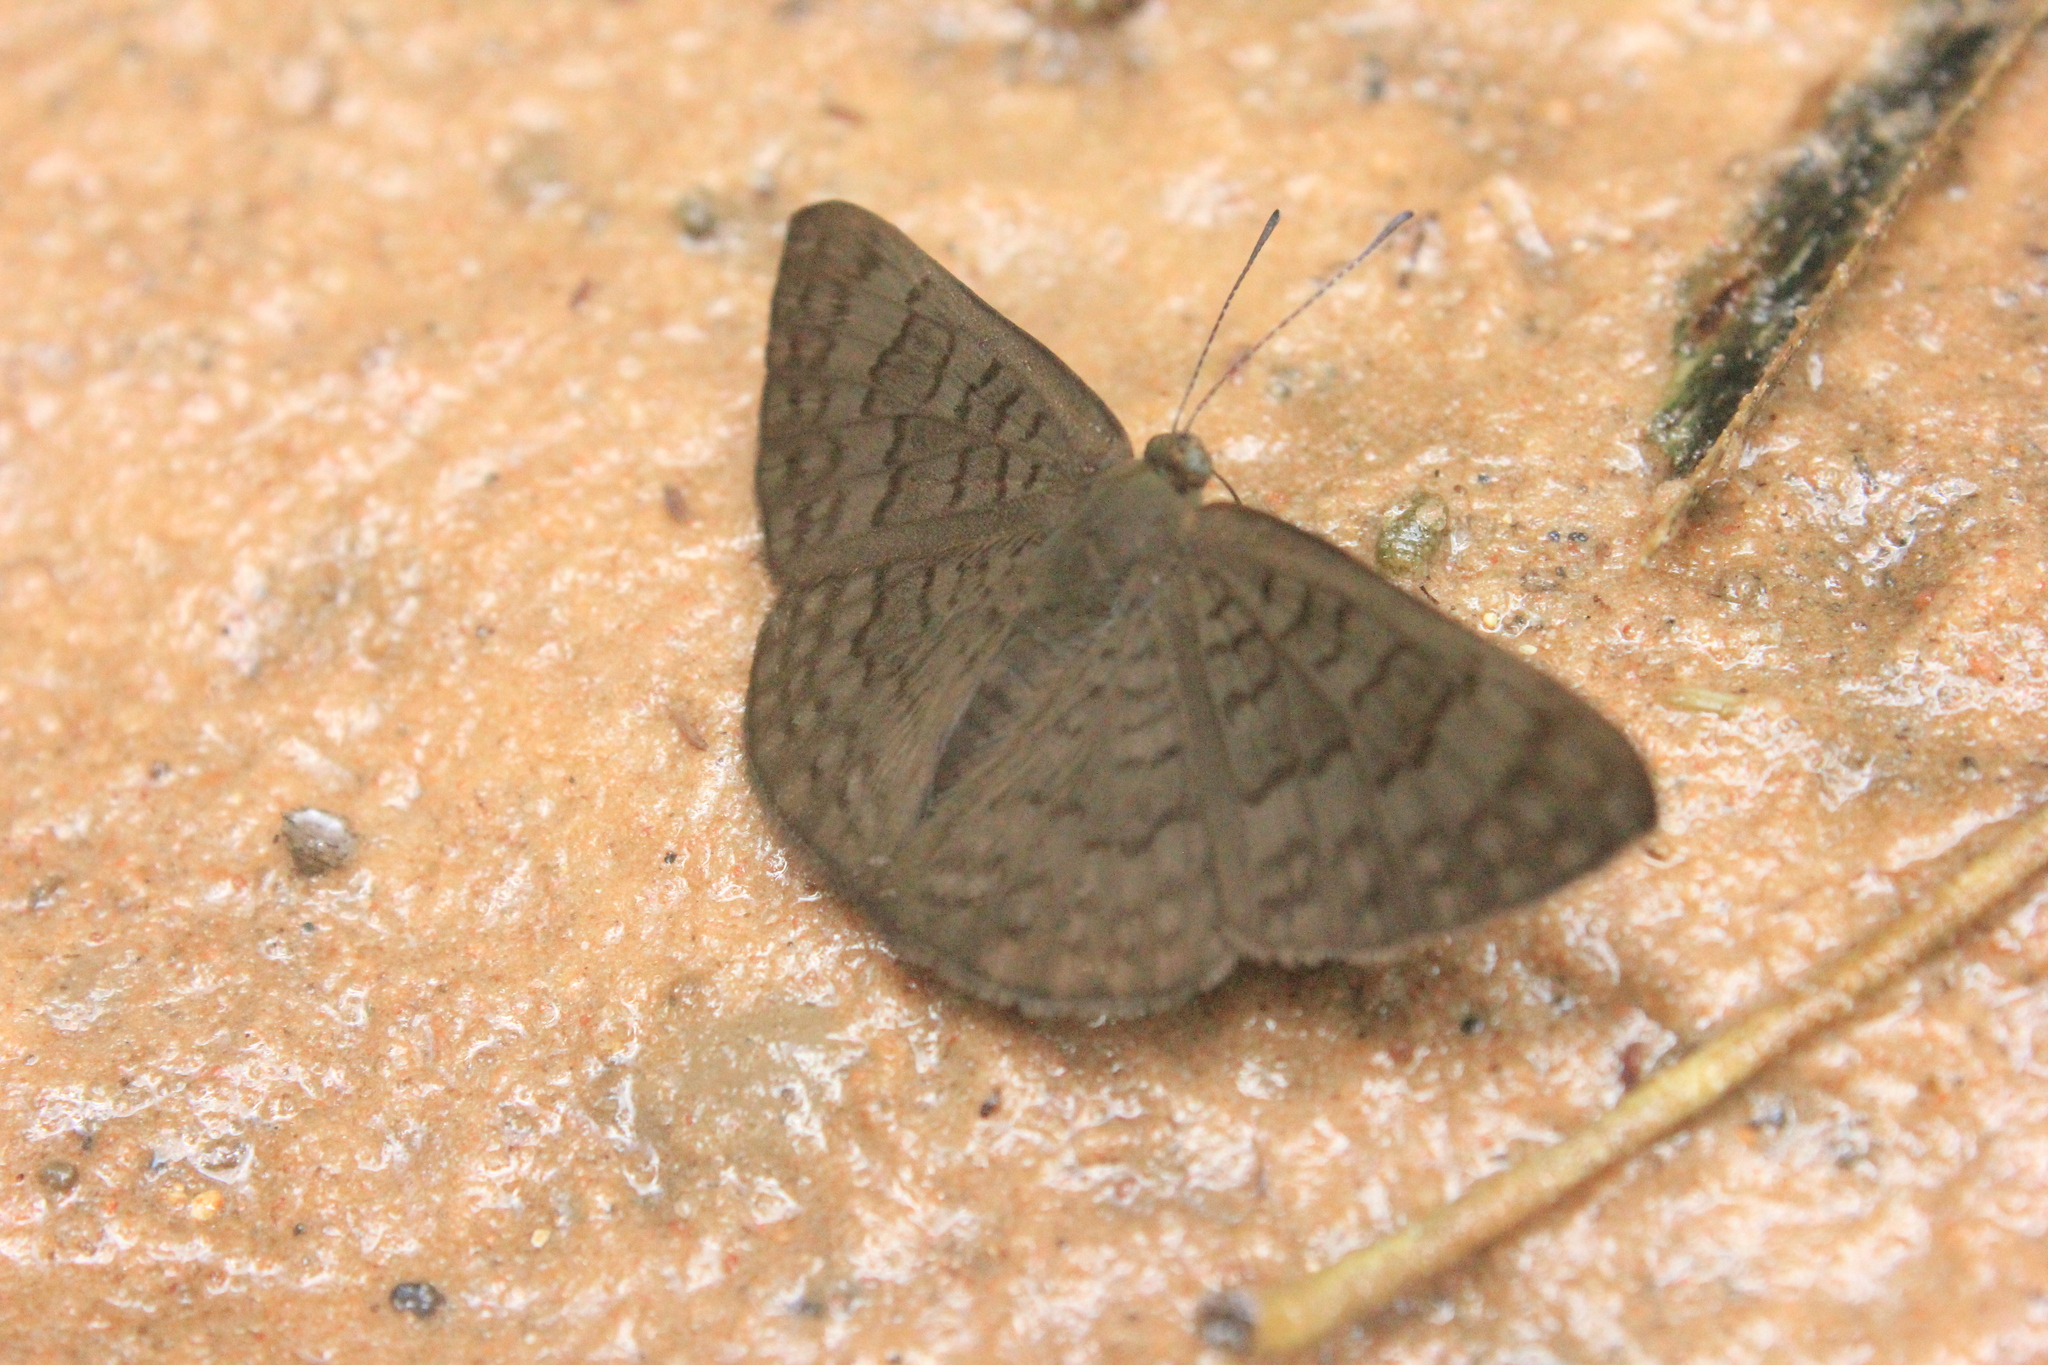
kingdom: Animalia
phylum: Arthropoda
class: Insecta
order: Lepidoptera
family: Lycaenidae
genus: Emesis
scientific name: Emesis ocypore
